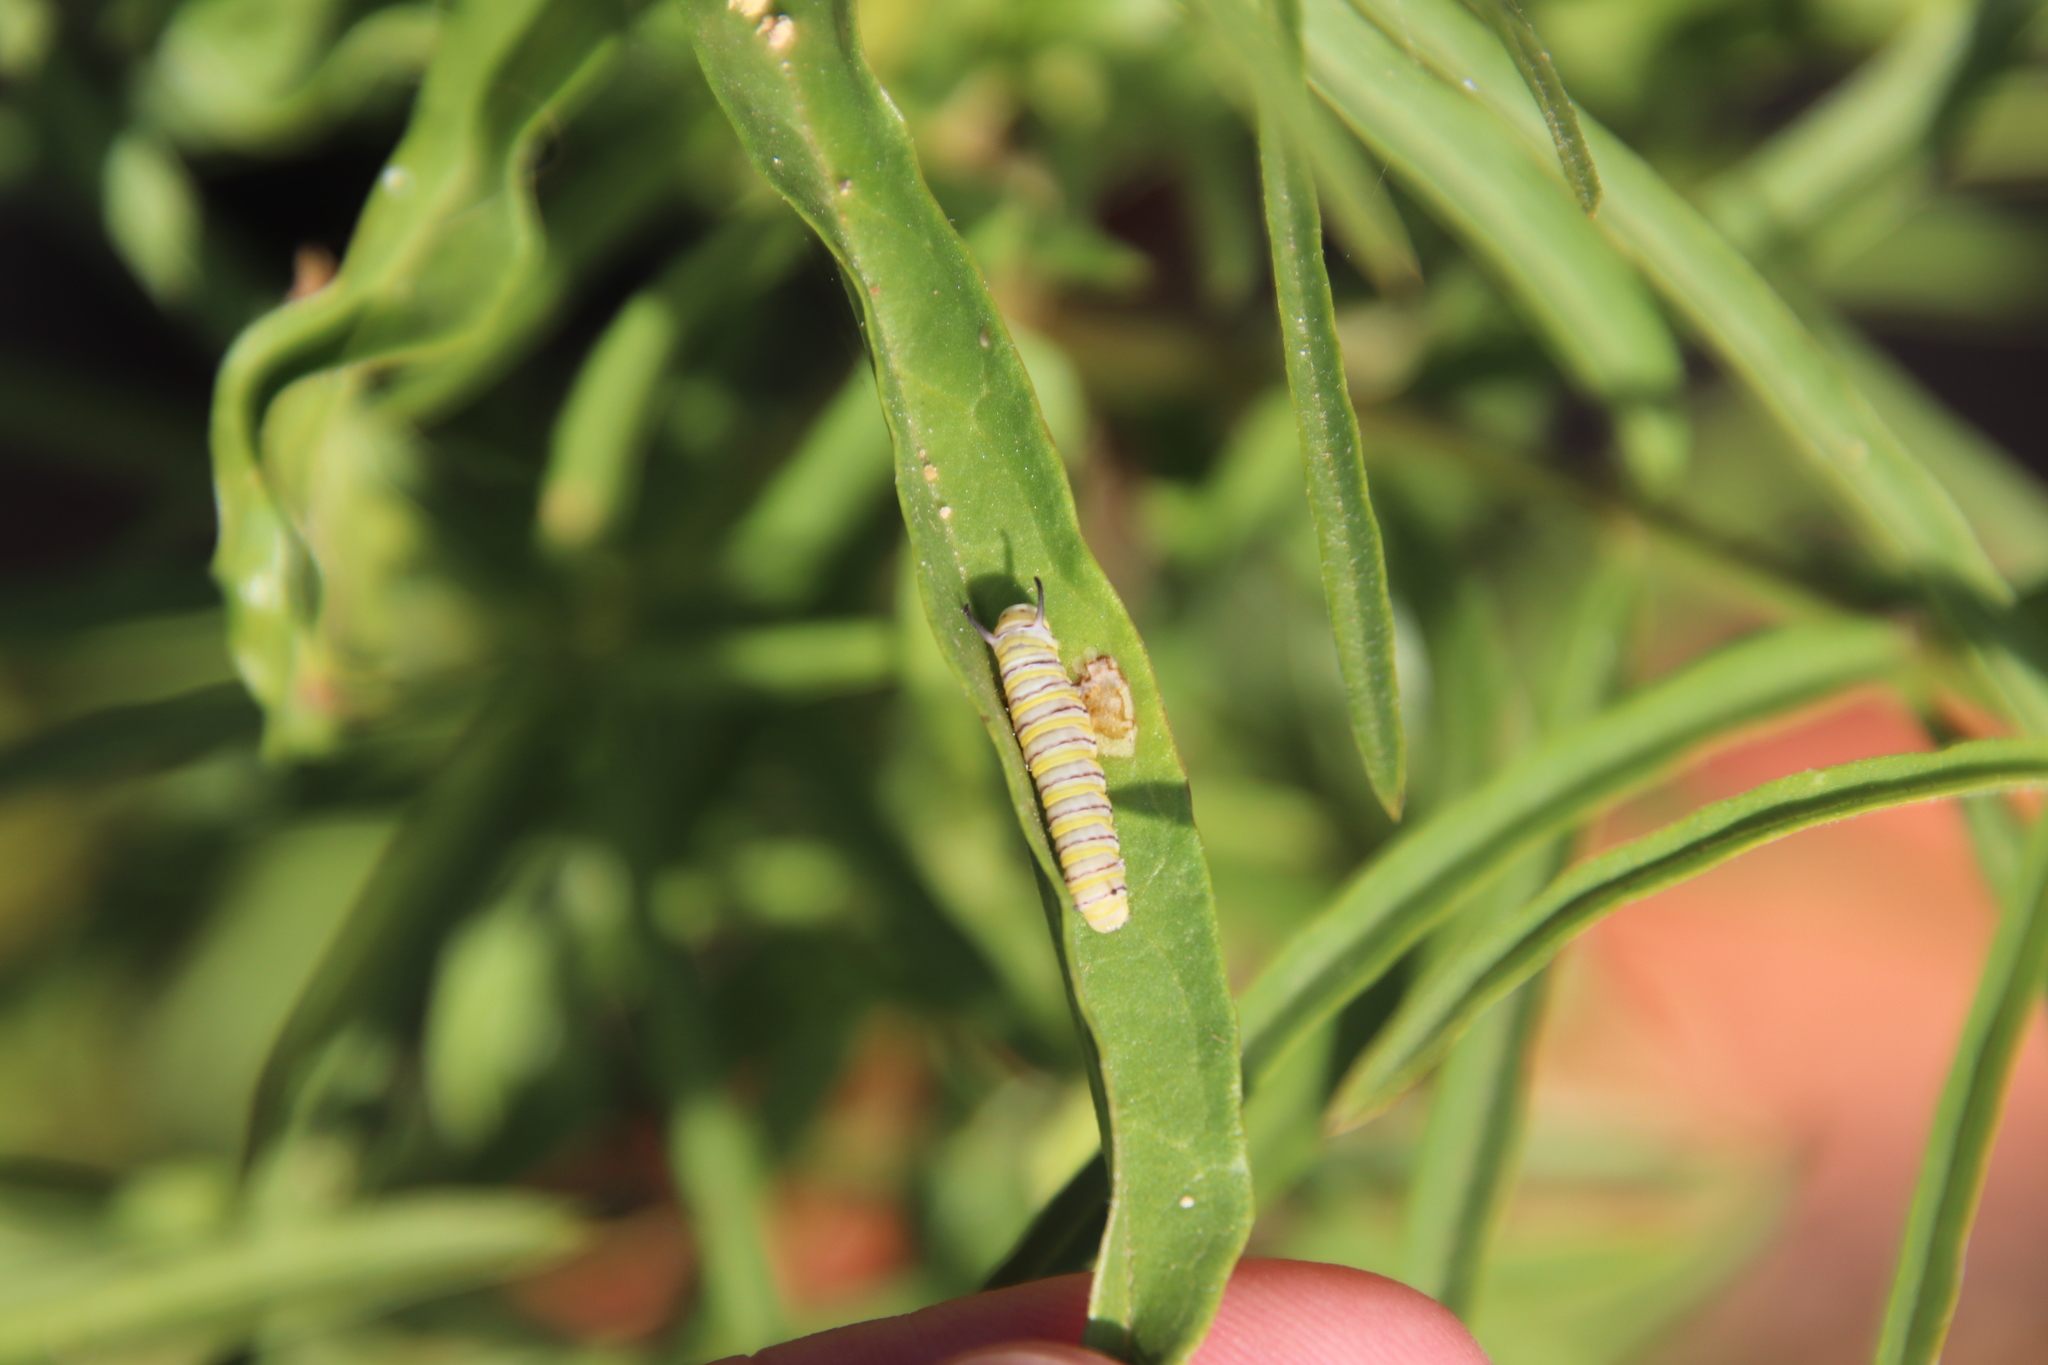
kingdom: Animalia
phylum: Arthropoda
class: Insecta
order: Lepidoptera
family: Nymphalidae
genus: Danaus
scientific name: Danaus plexippus
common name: Monarch
